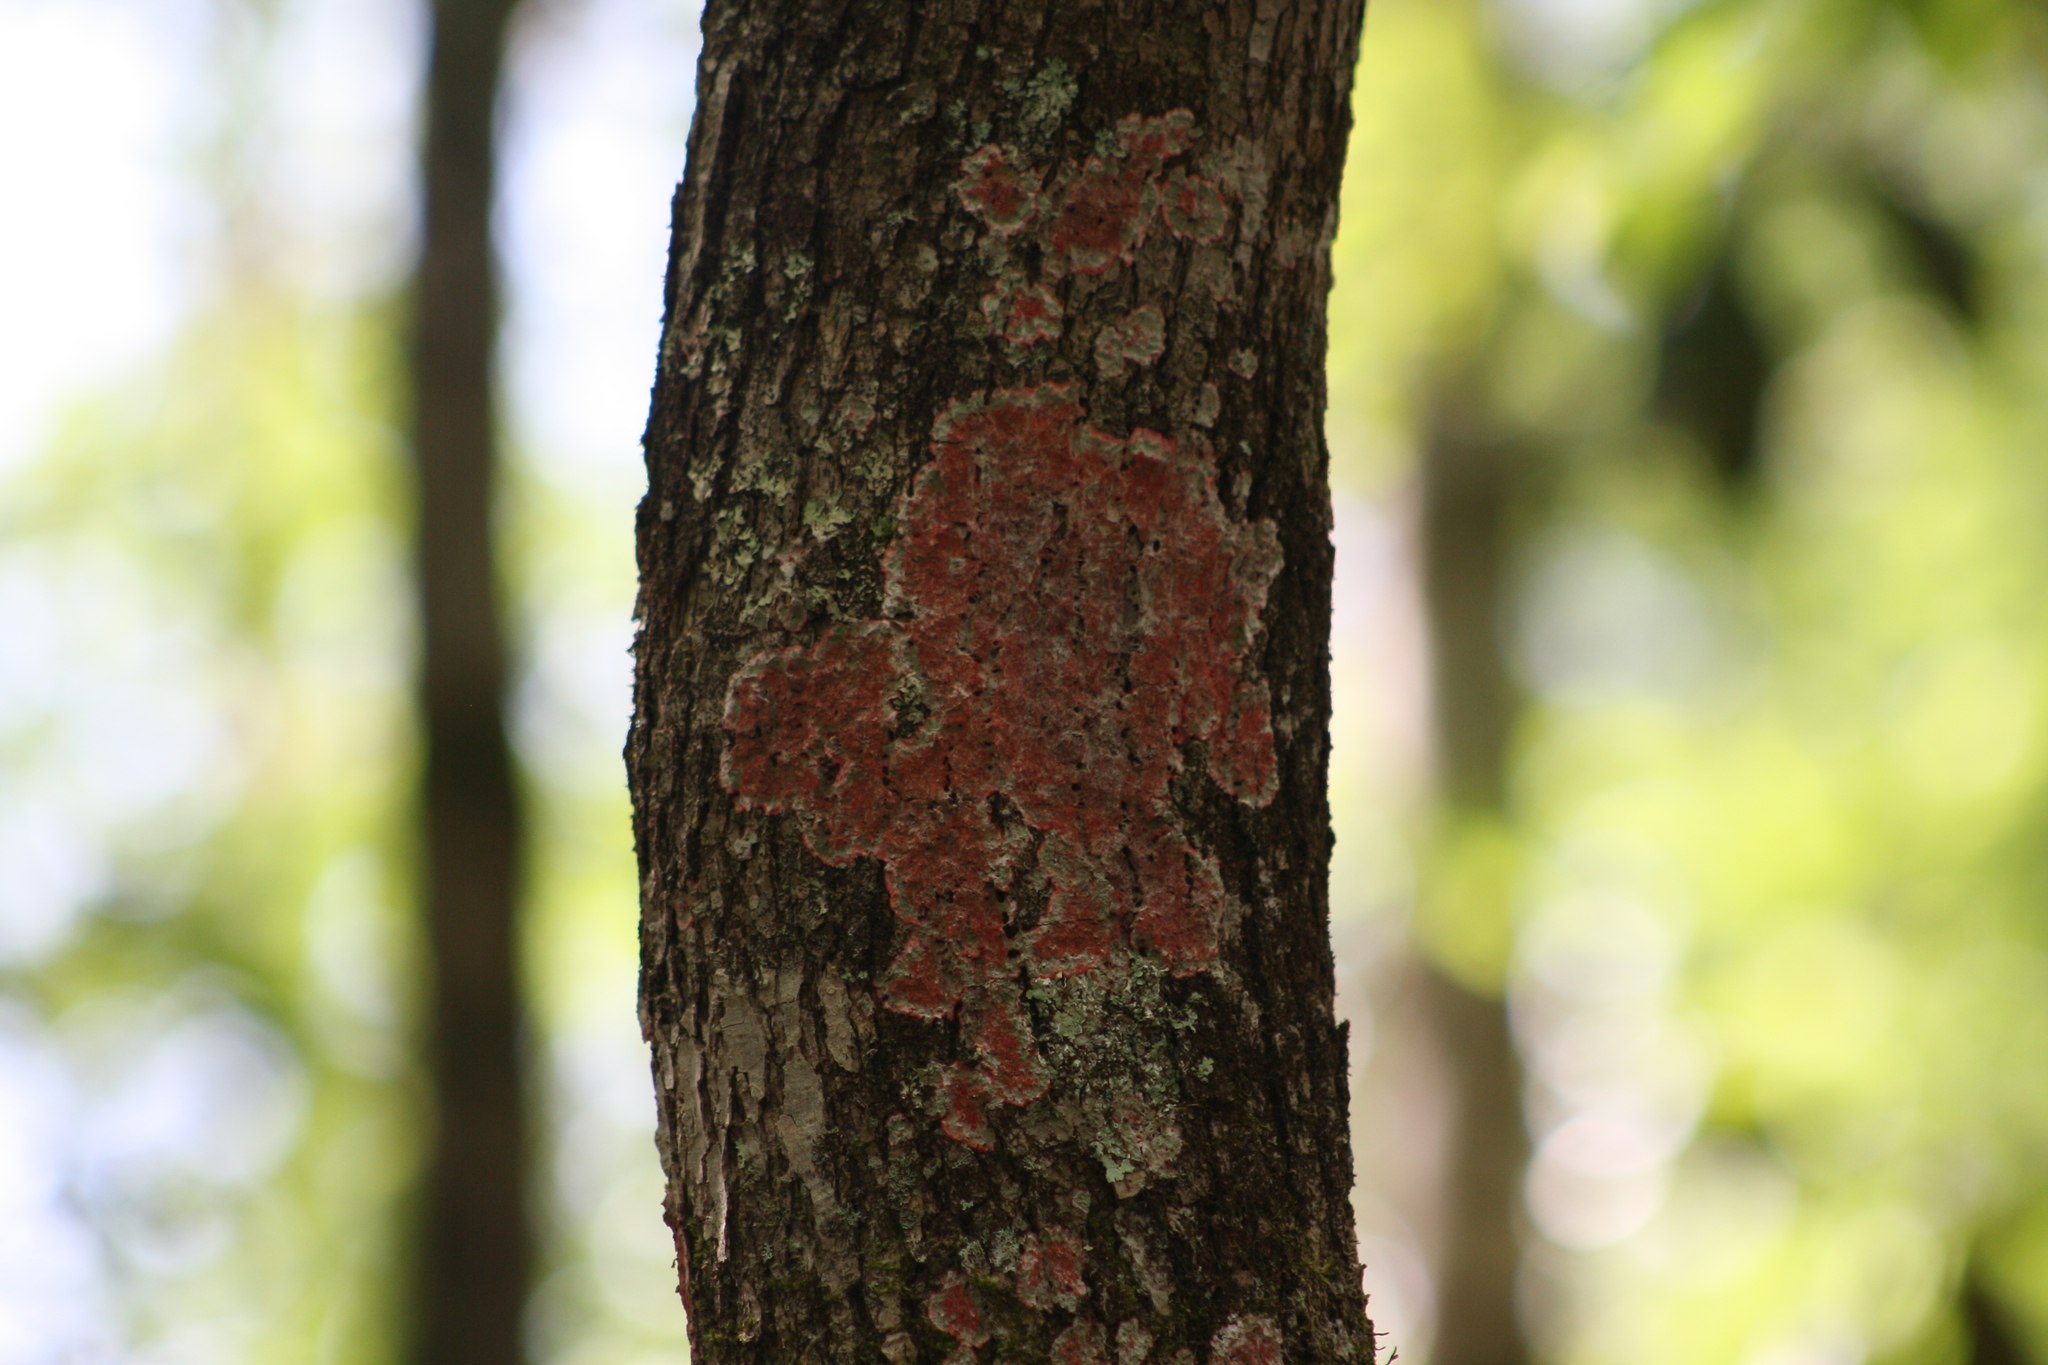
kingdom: Fungi
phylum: Ascomycota
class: Arthoniomycetes
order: Arthoniales
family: Arthoniaceae
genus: Herpothallon
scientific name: Herpothallon rubrocinctum
